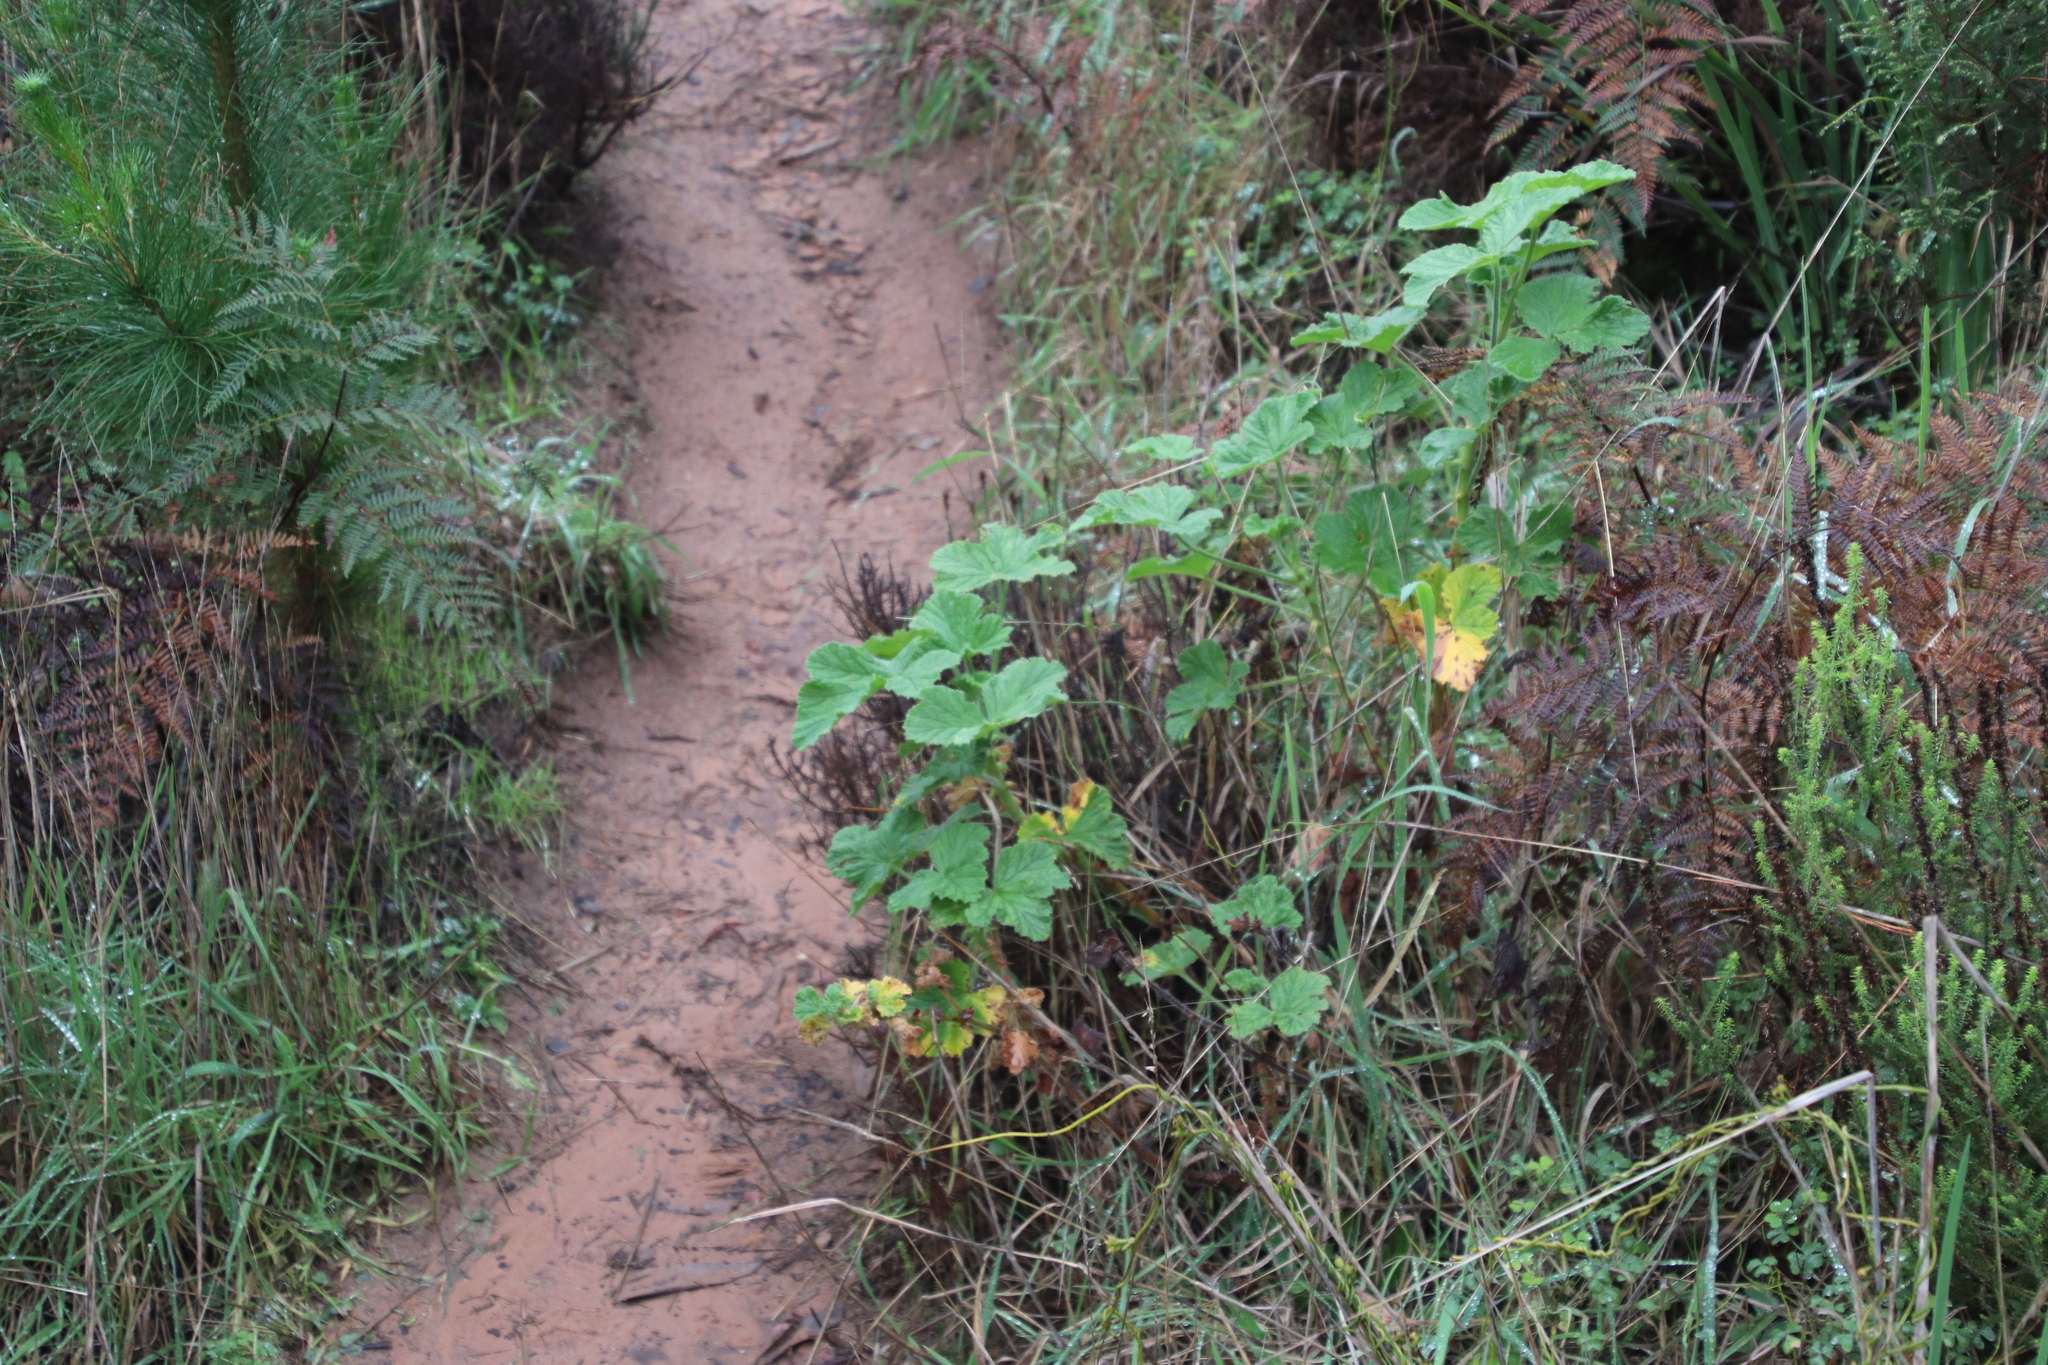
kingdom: Plantae
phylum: Tracheophyta
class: Magnoliopsida
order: Geraniales
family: Geraniaceae
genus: Pelargonium
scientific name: Pelargonium vitifolium
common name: Grapeleaf geranium
